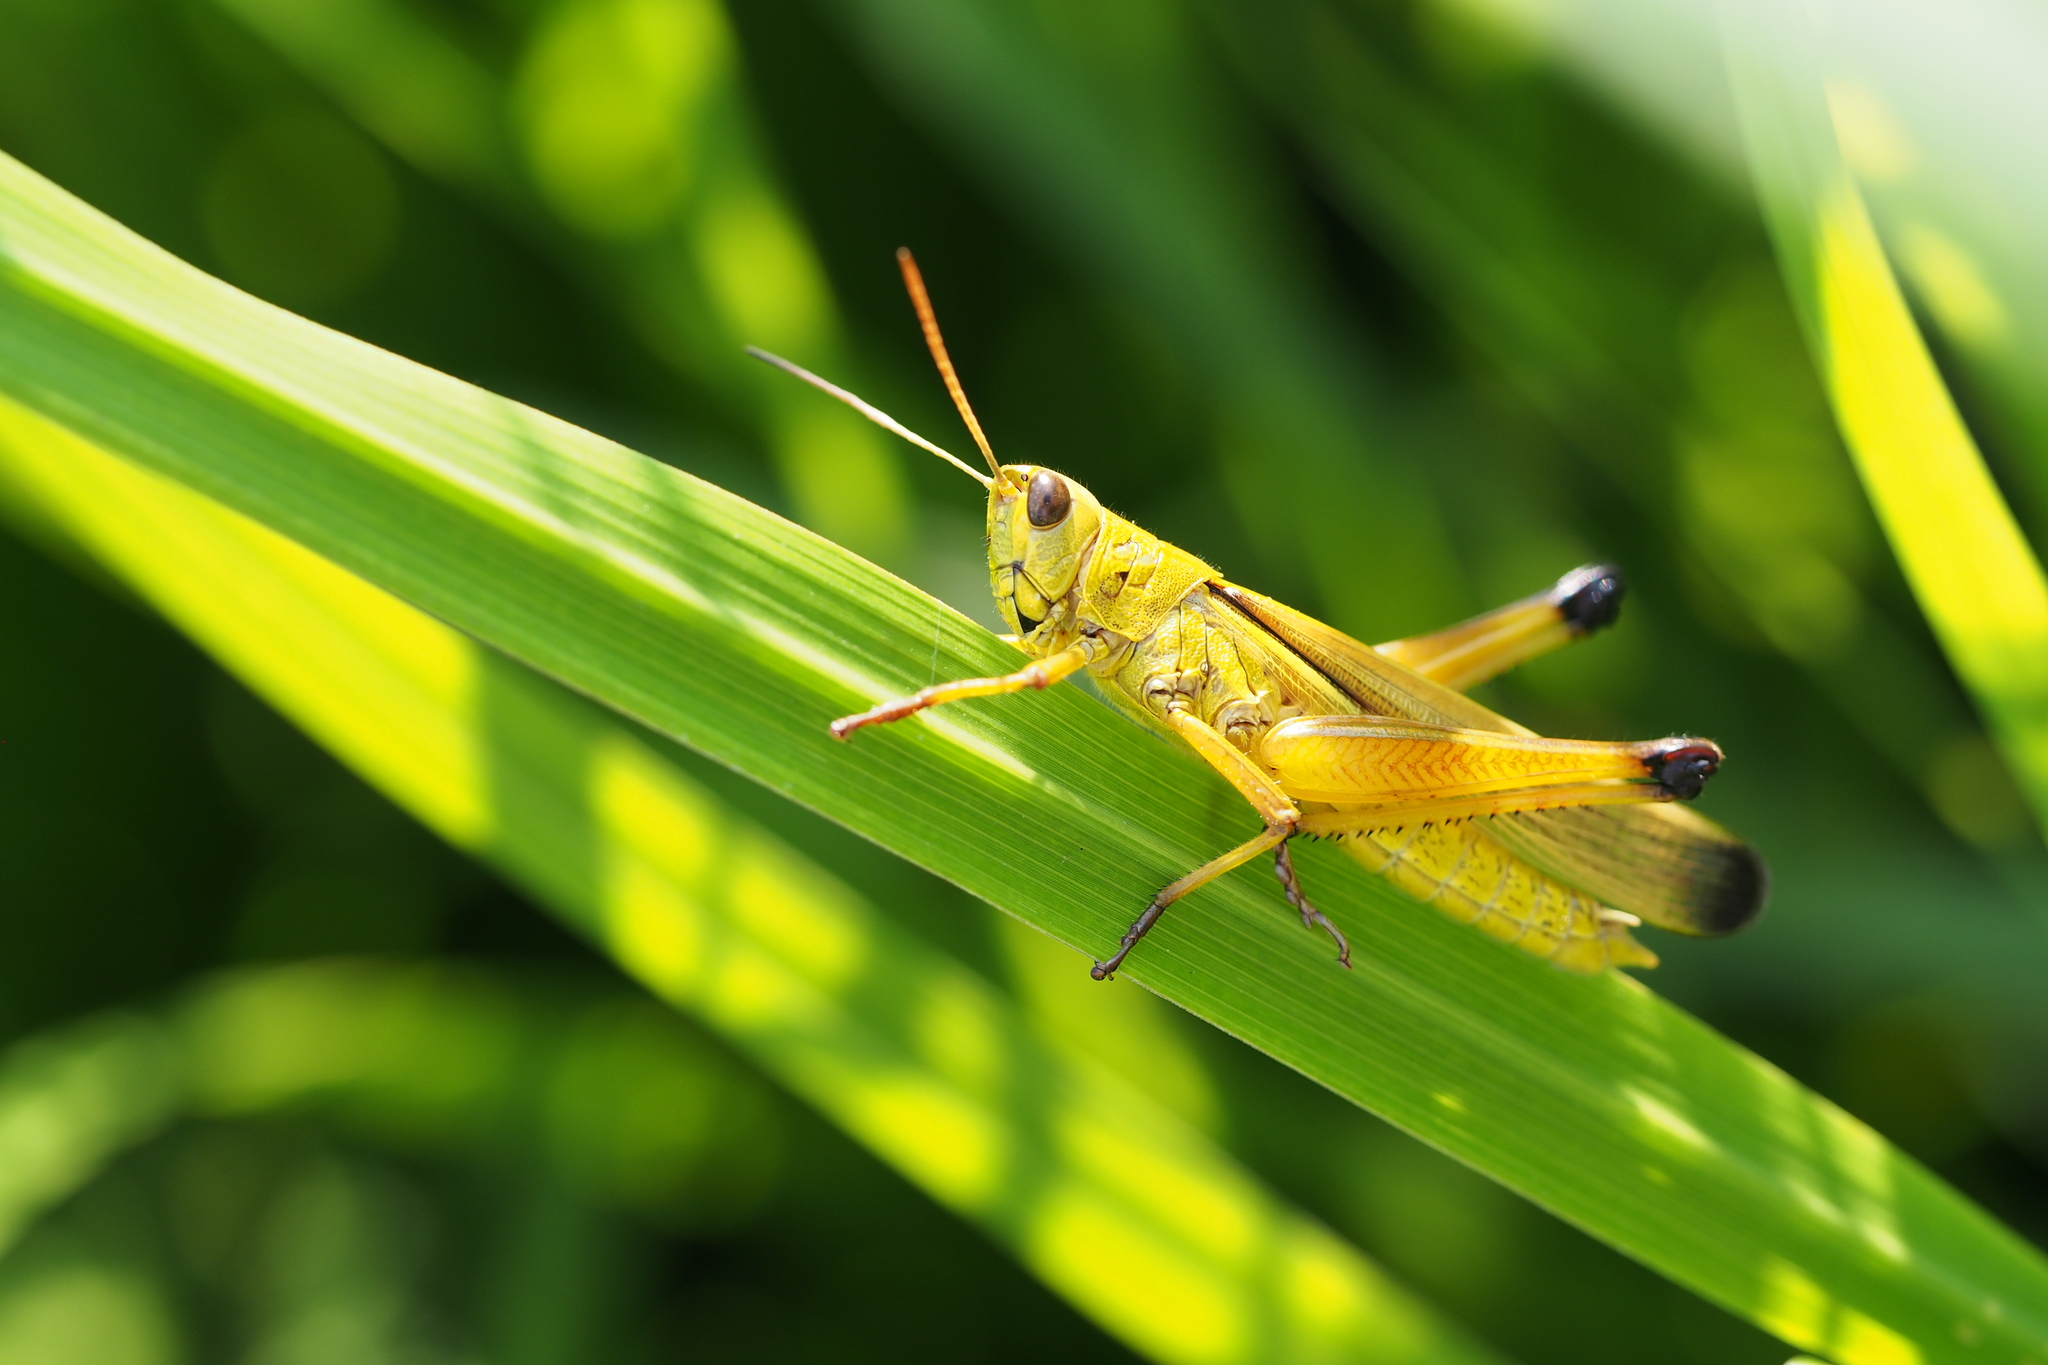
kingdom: Animalia
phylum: Arthropoda
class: Insecta
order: Orthoptera
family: Acrididae
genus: Stethophyma
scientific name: Stethophyma magister
